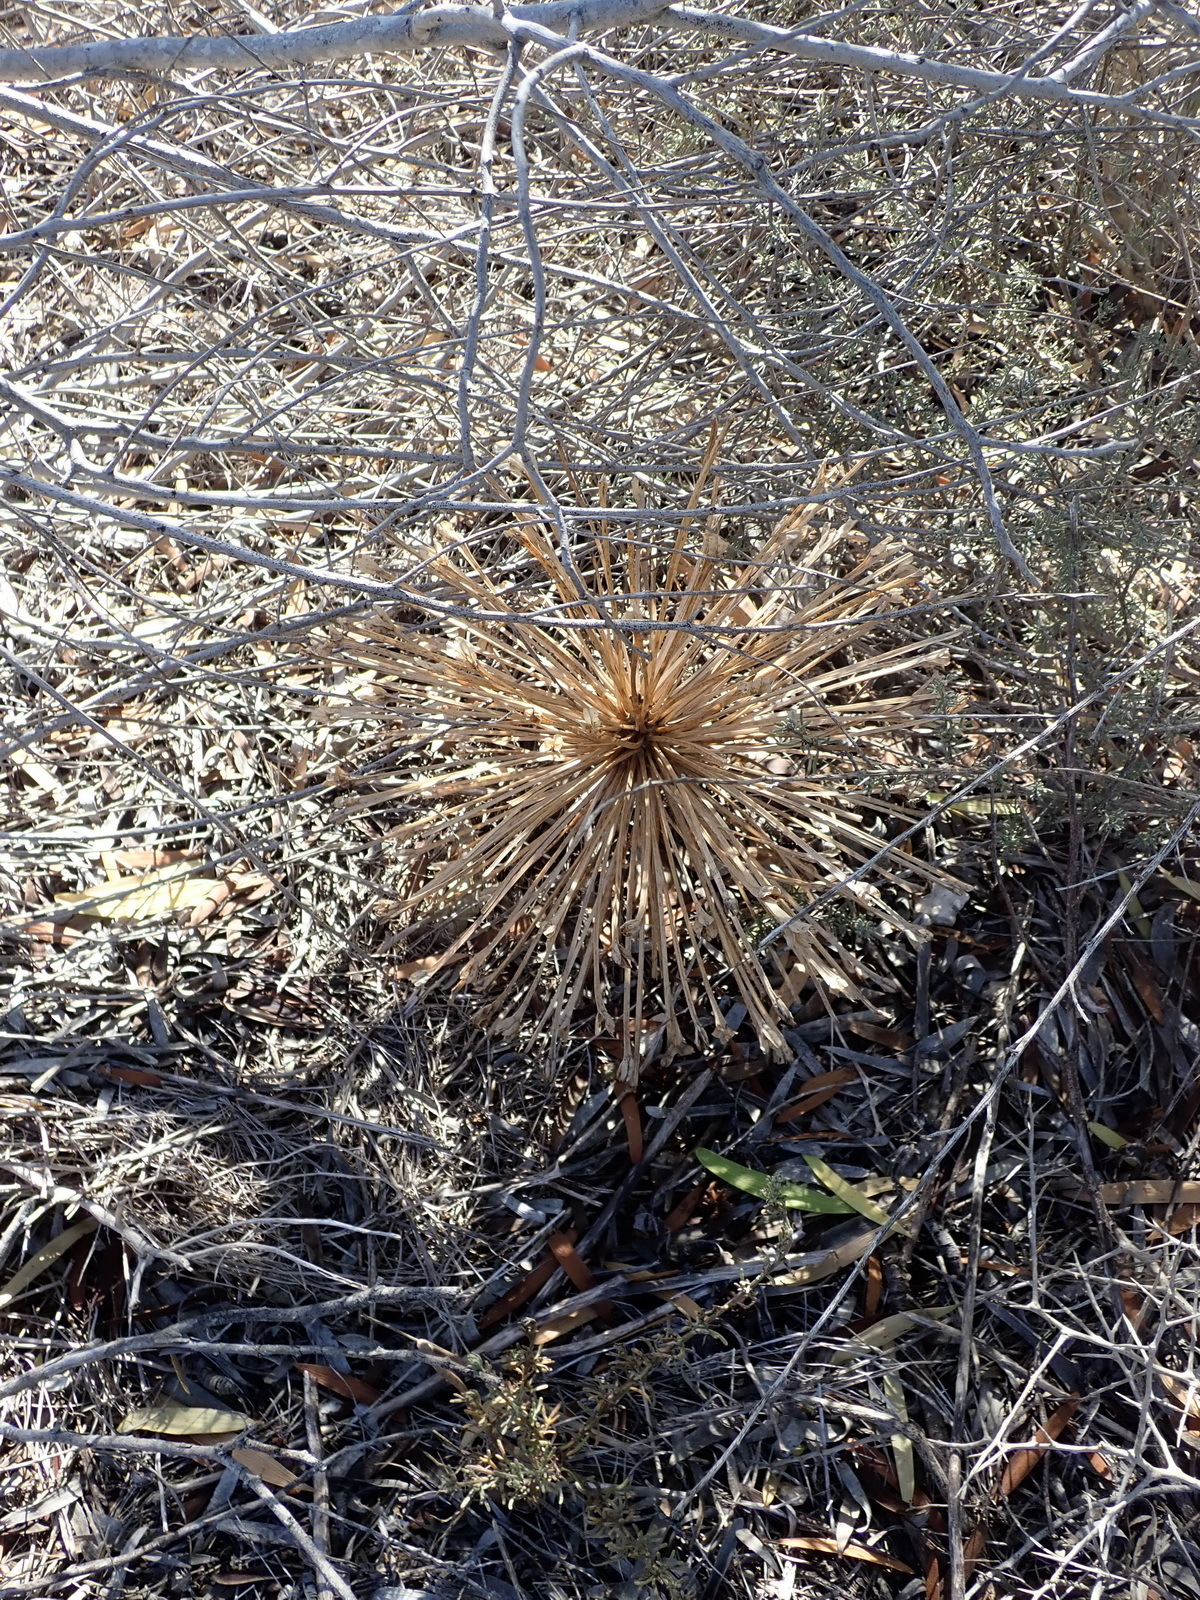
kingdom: Plantae
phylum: Tracheophyta
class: Liliopsida
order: Asparagales
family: Amaryllidaceae
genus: Crossyne
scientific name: Crossyne guttata
